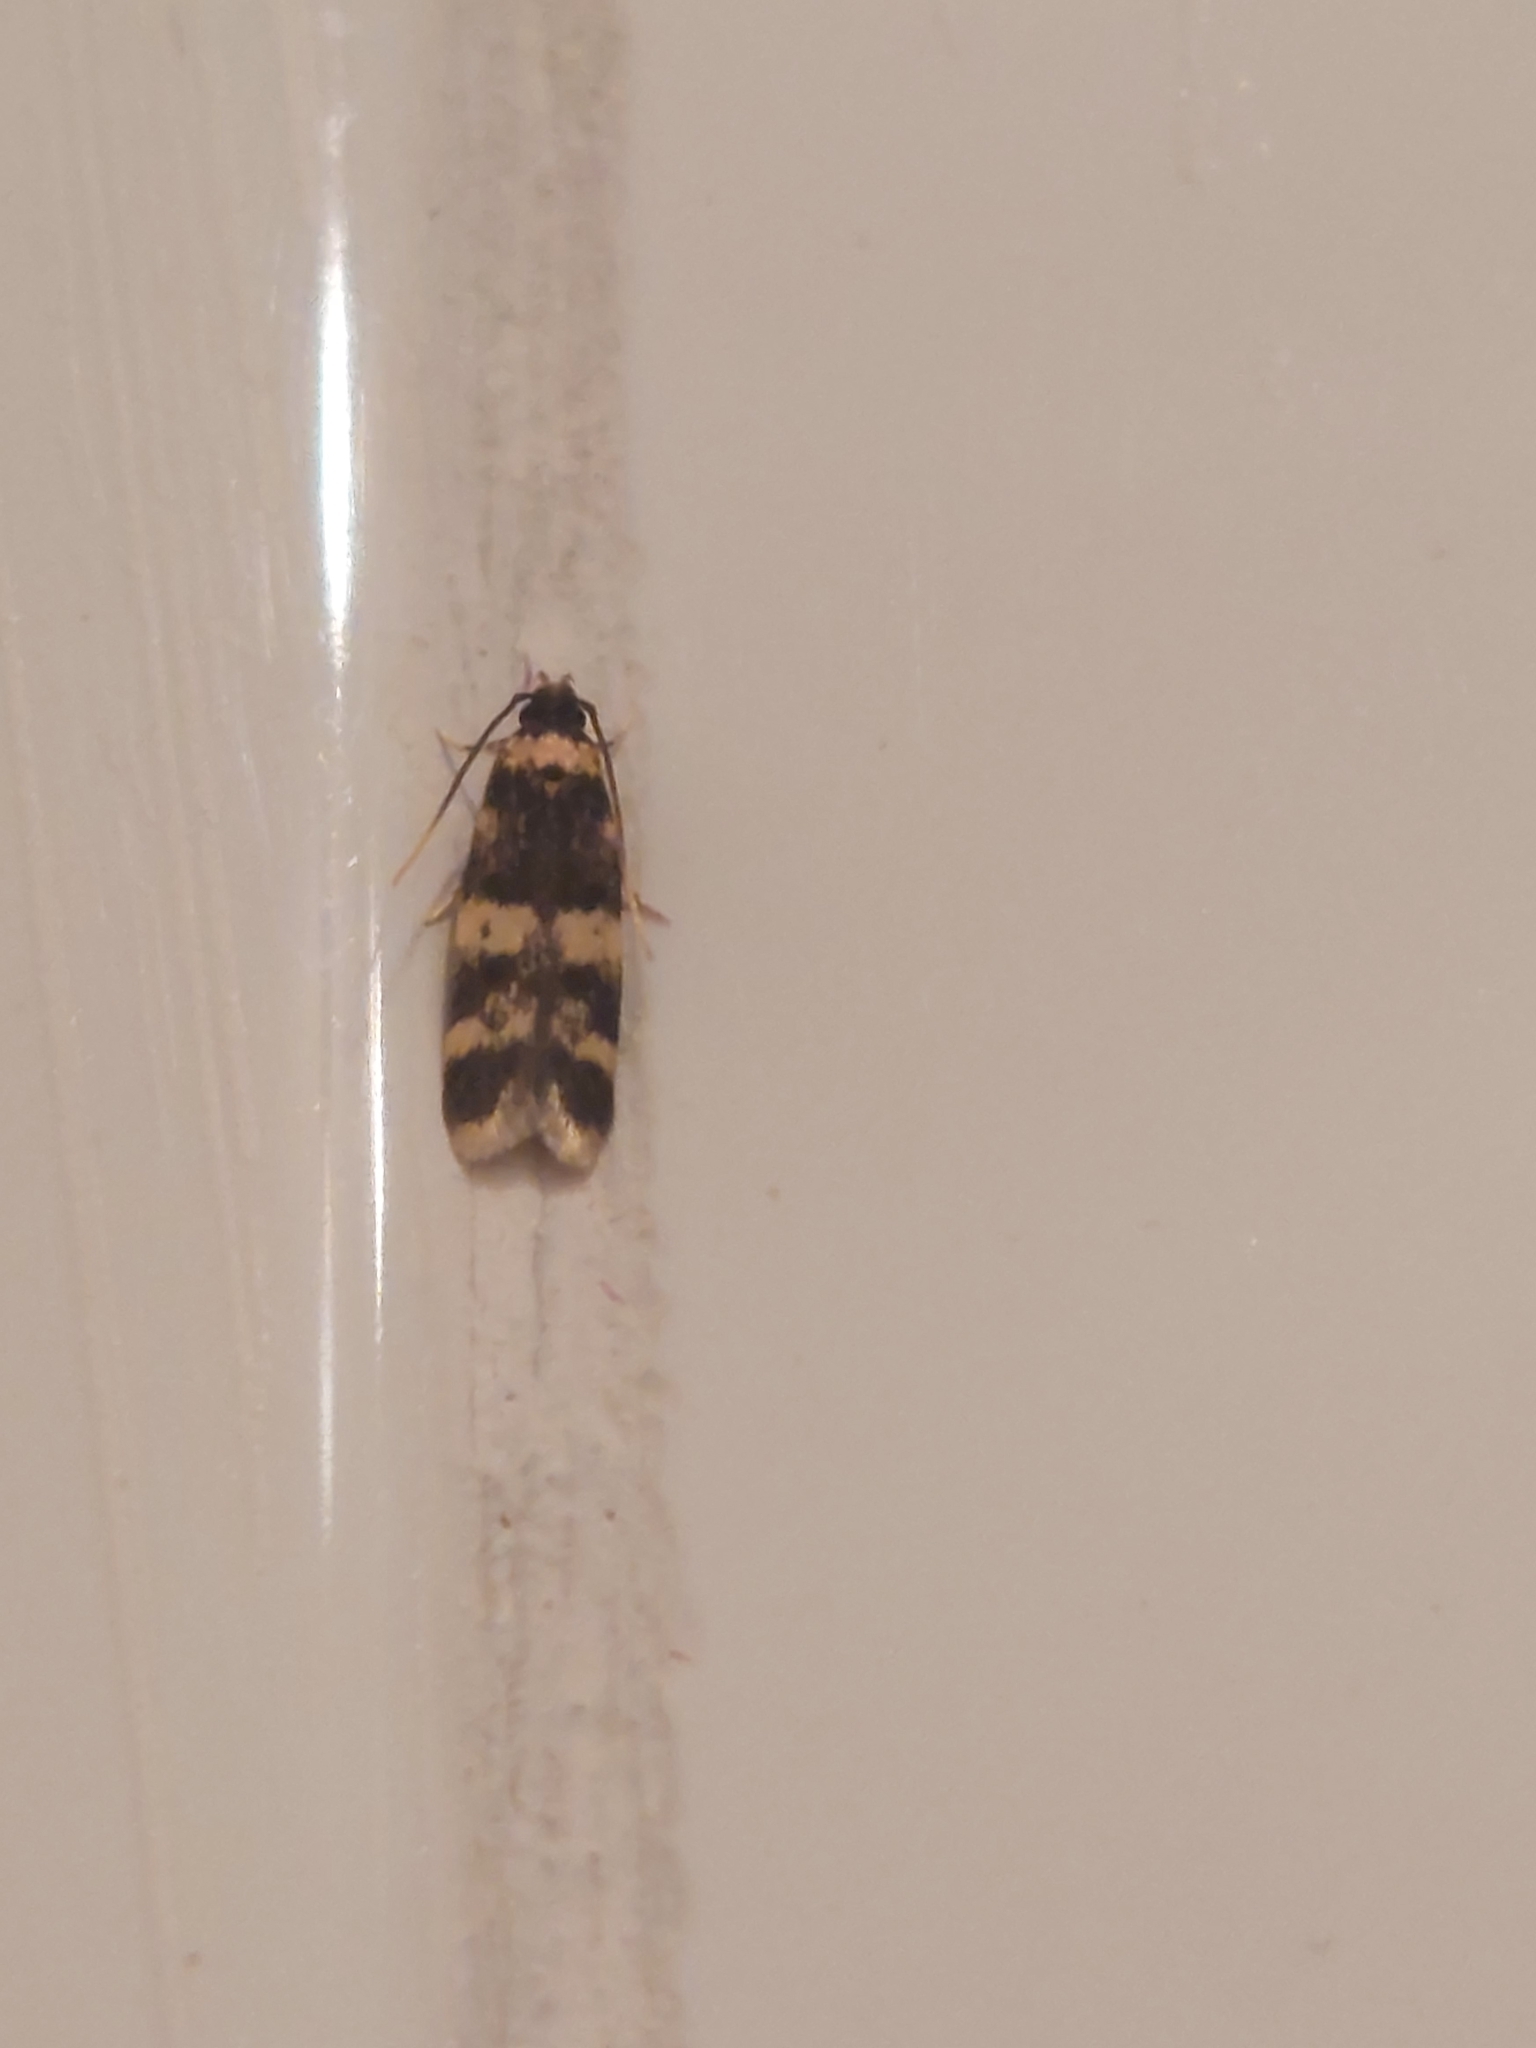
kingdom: Animalia
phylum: Arthropoda
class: Insecta
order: Lepidoptera
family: Autostichidae
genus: Oegoconia
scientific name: Oegoconia
